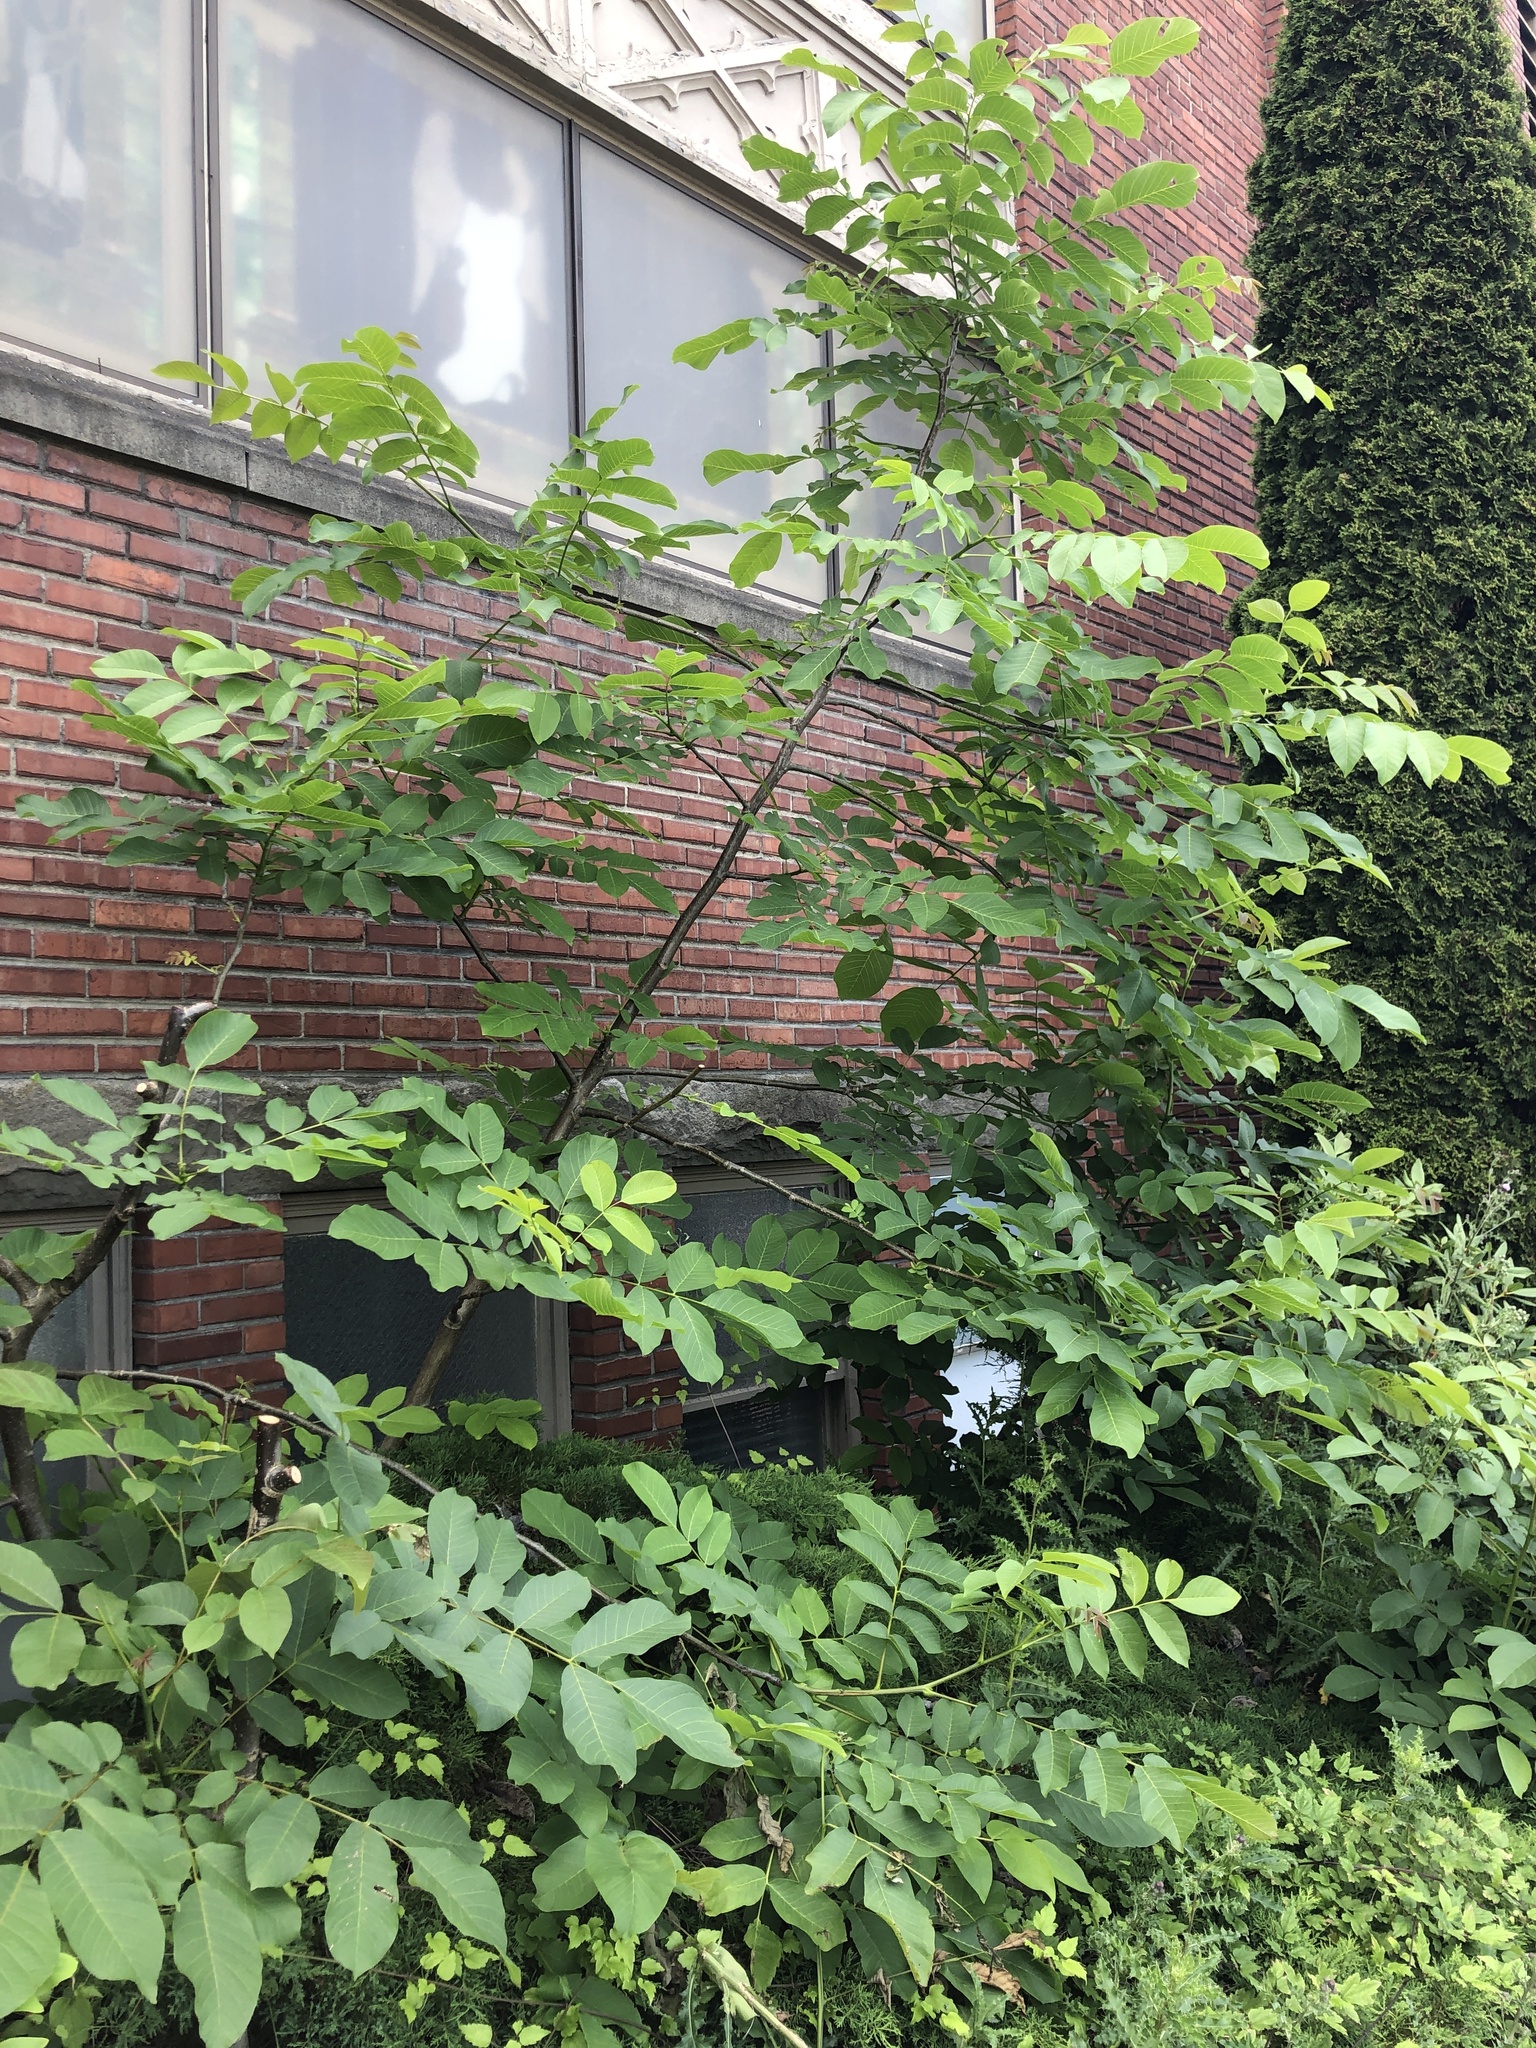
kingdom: Plantae
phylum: Tracheophyta
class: Magnoliopsida
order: Fagales
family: Juglandaceae
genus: Juglans
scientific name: Juglans regia
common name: Walnut
